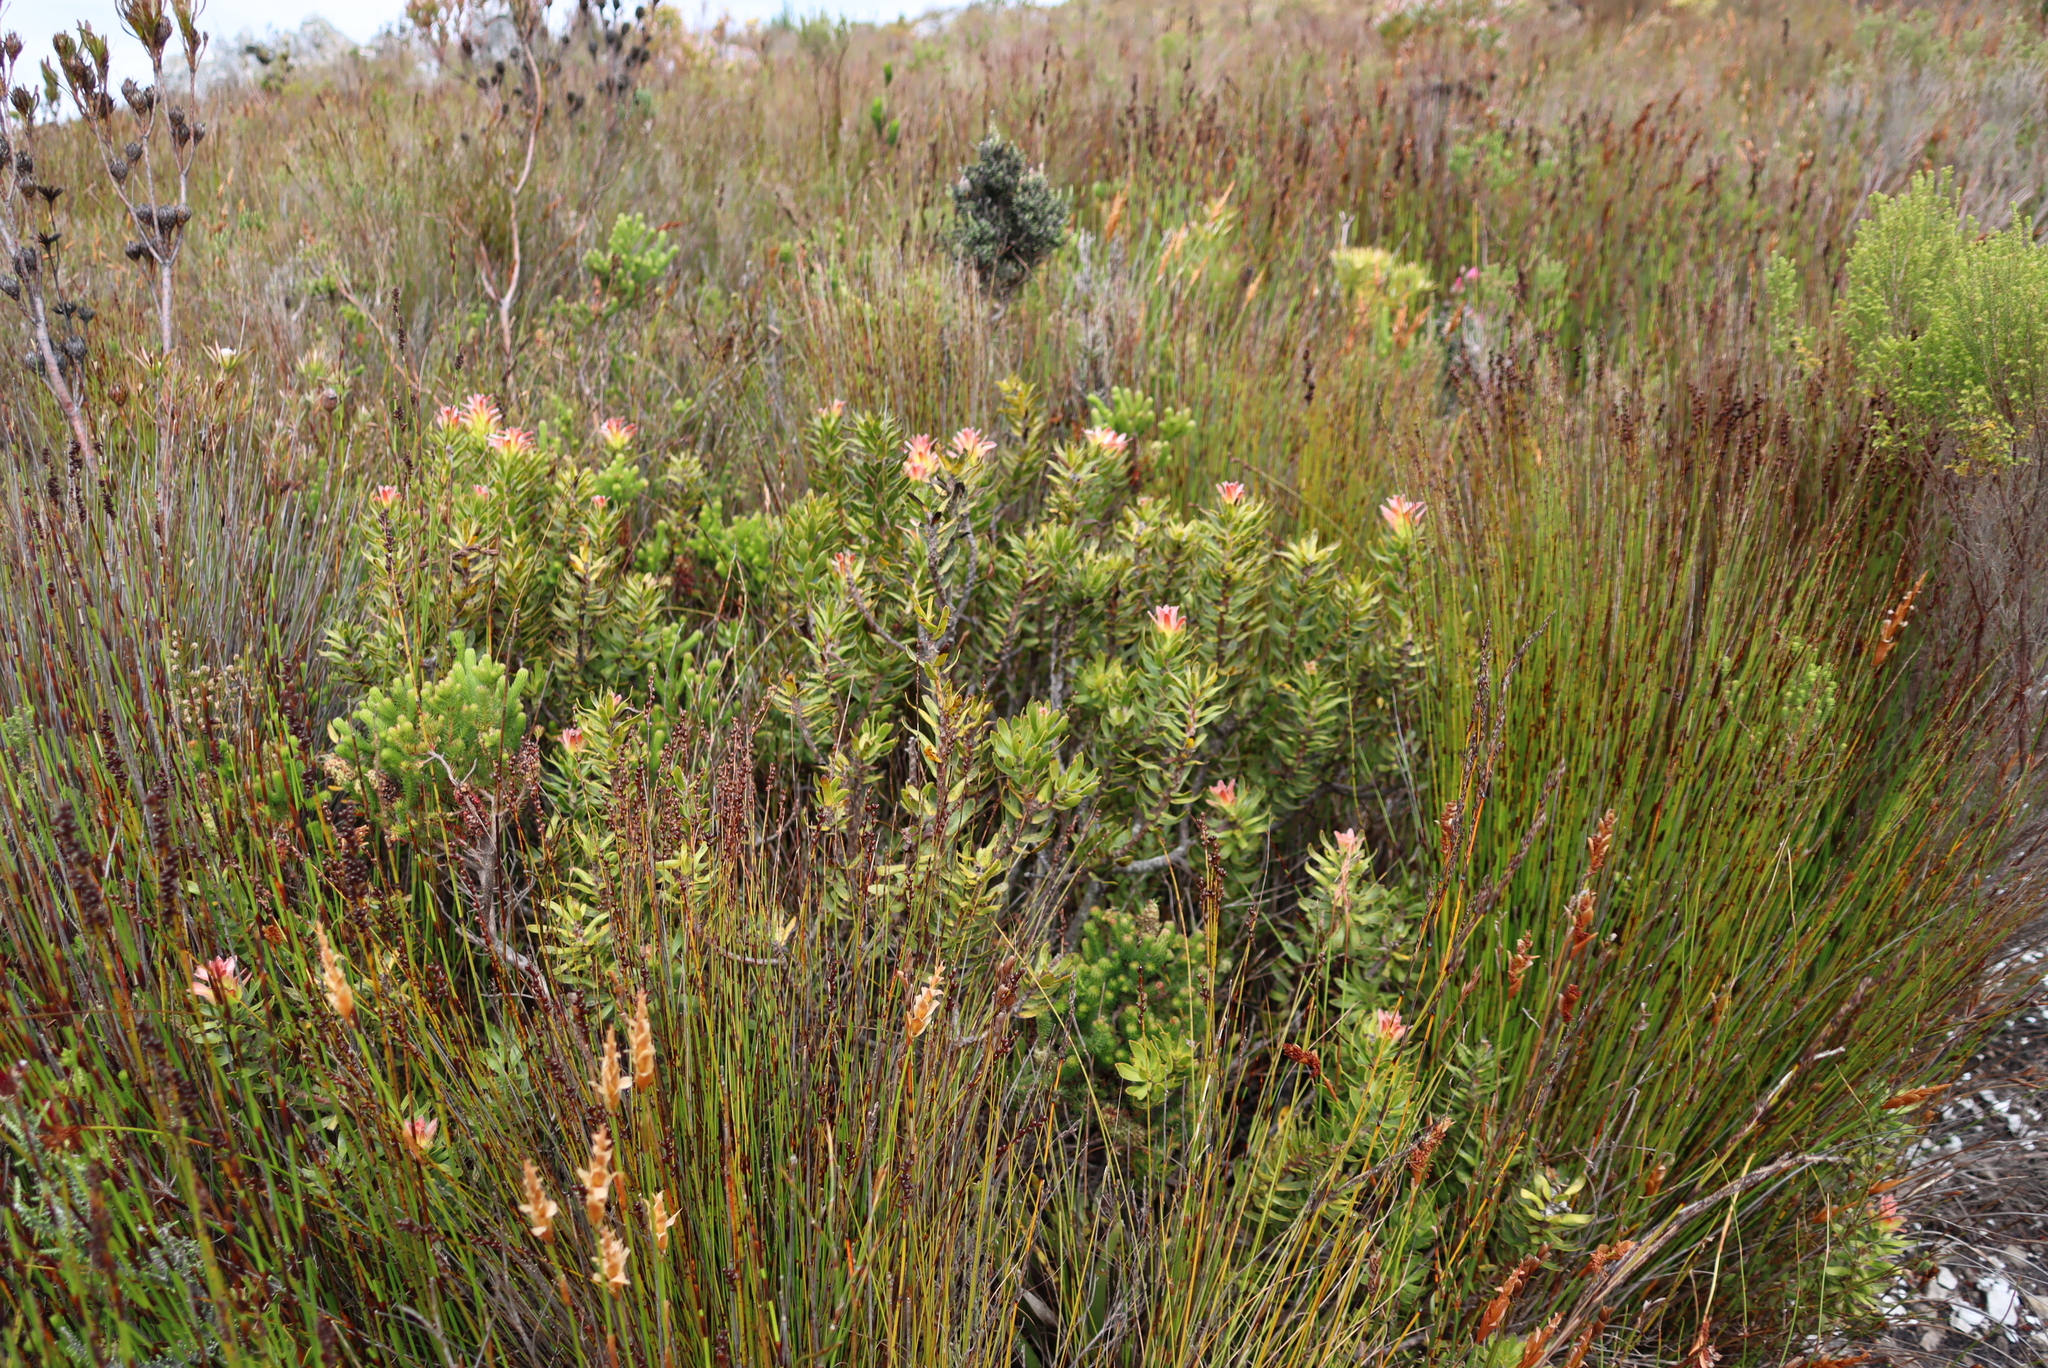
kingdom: Plantae
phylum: Tracheophyta
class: Magnoliopsida
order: Proteales
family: Proteaceae
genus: Mimetes
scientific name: Mimetes cucullatus
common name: Common pagoda
